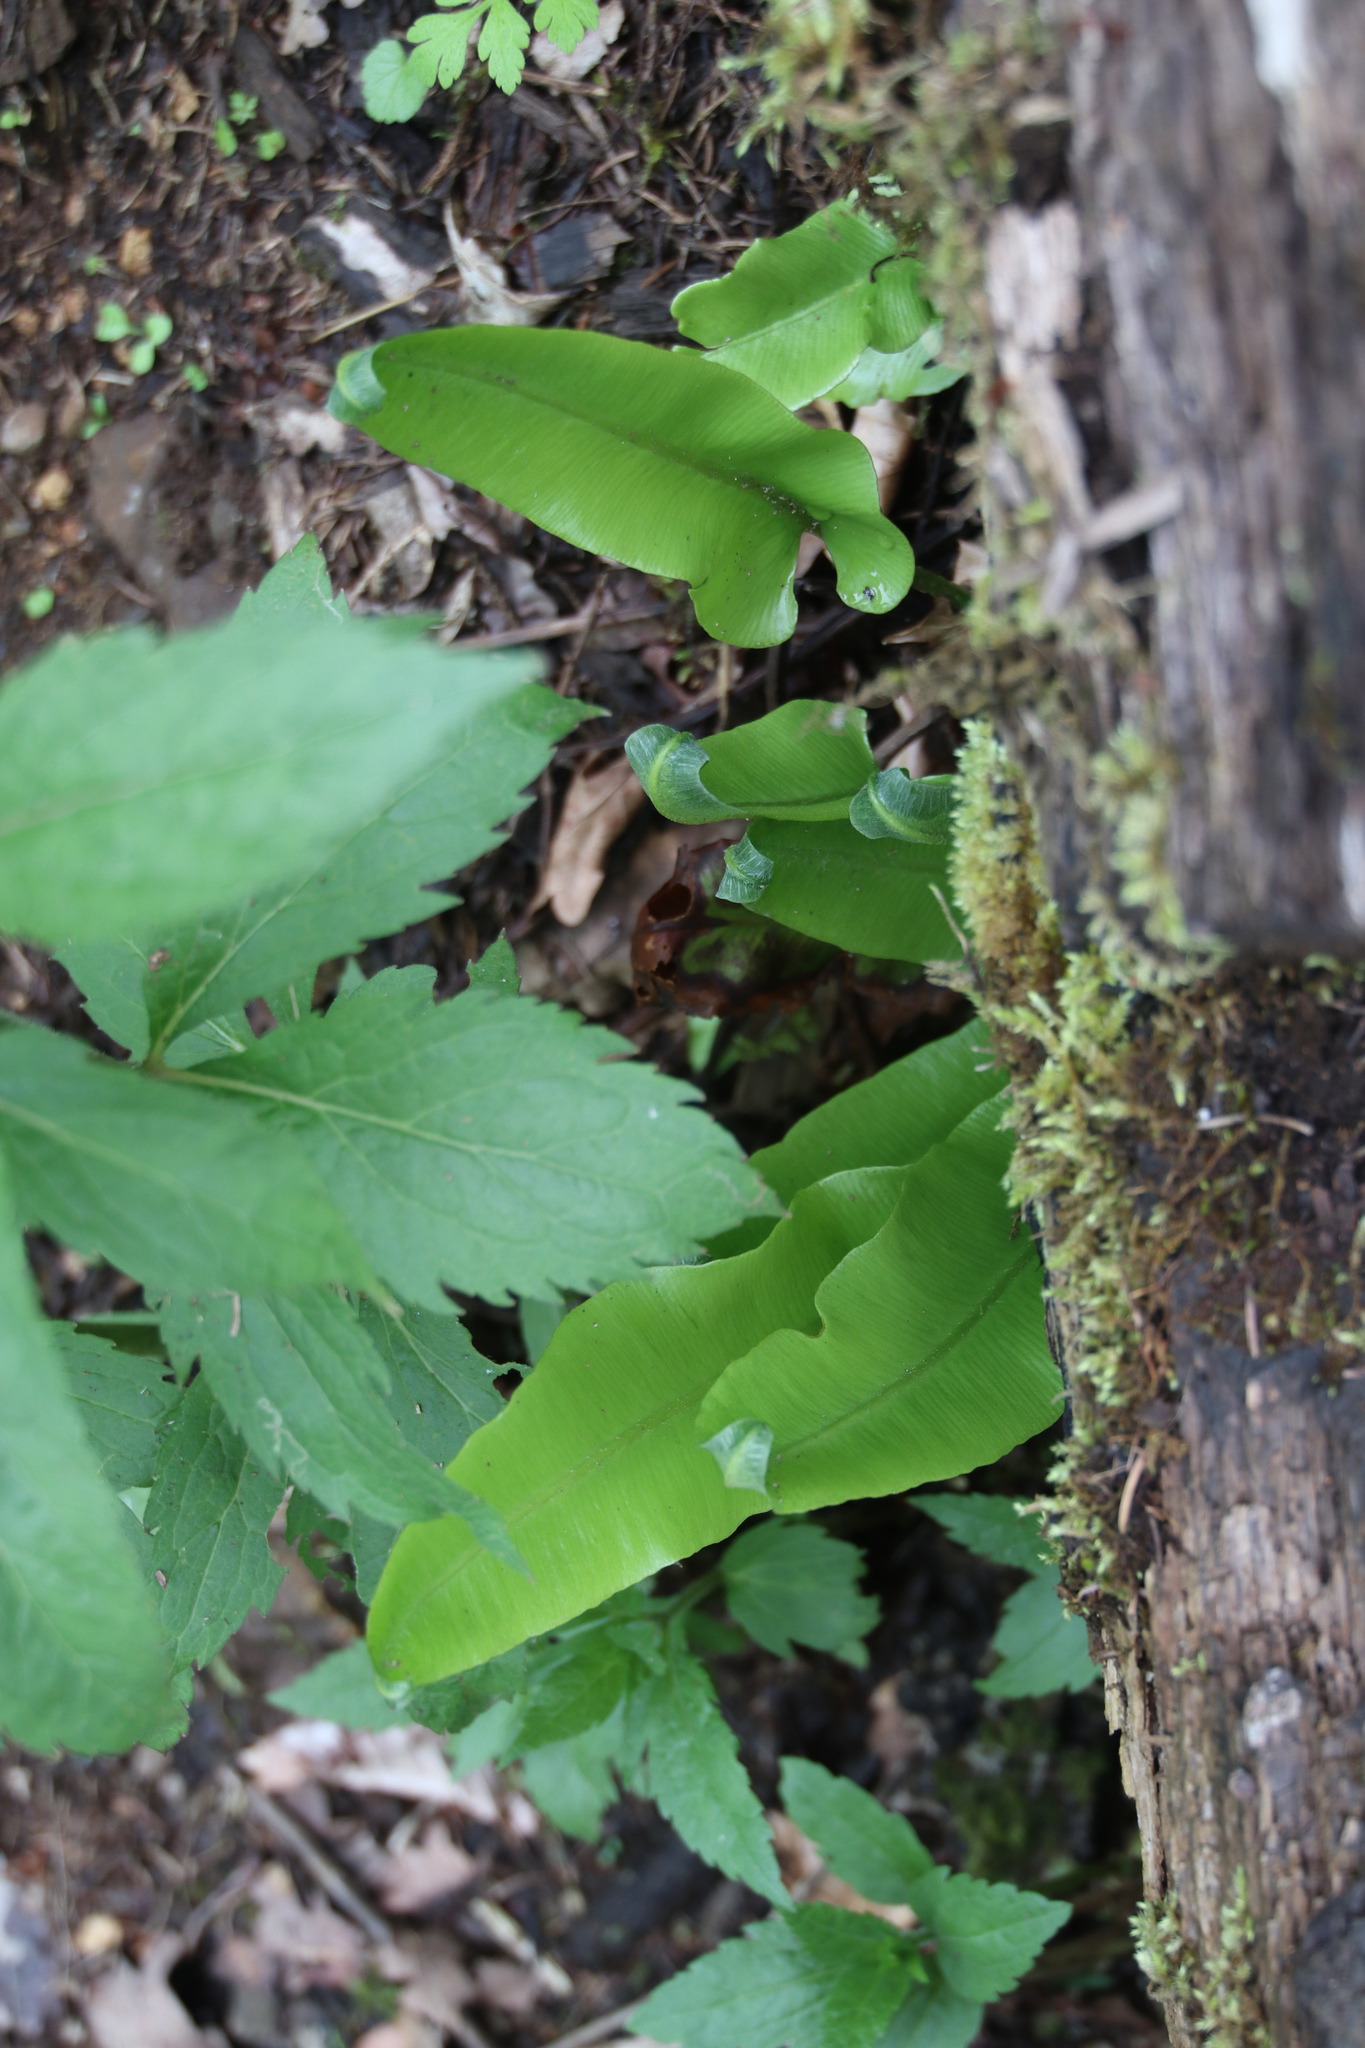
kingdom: Plantae
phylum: Tracheophyta
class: Polypodiopsida
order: Polypodiales
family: Aspleniaceae
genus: Asplenium
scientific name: Asplenium scolopendrium
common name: Hart's-tongue fern
